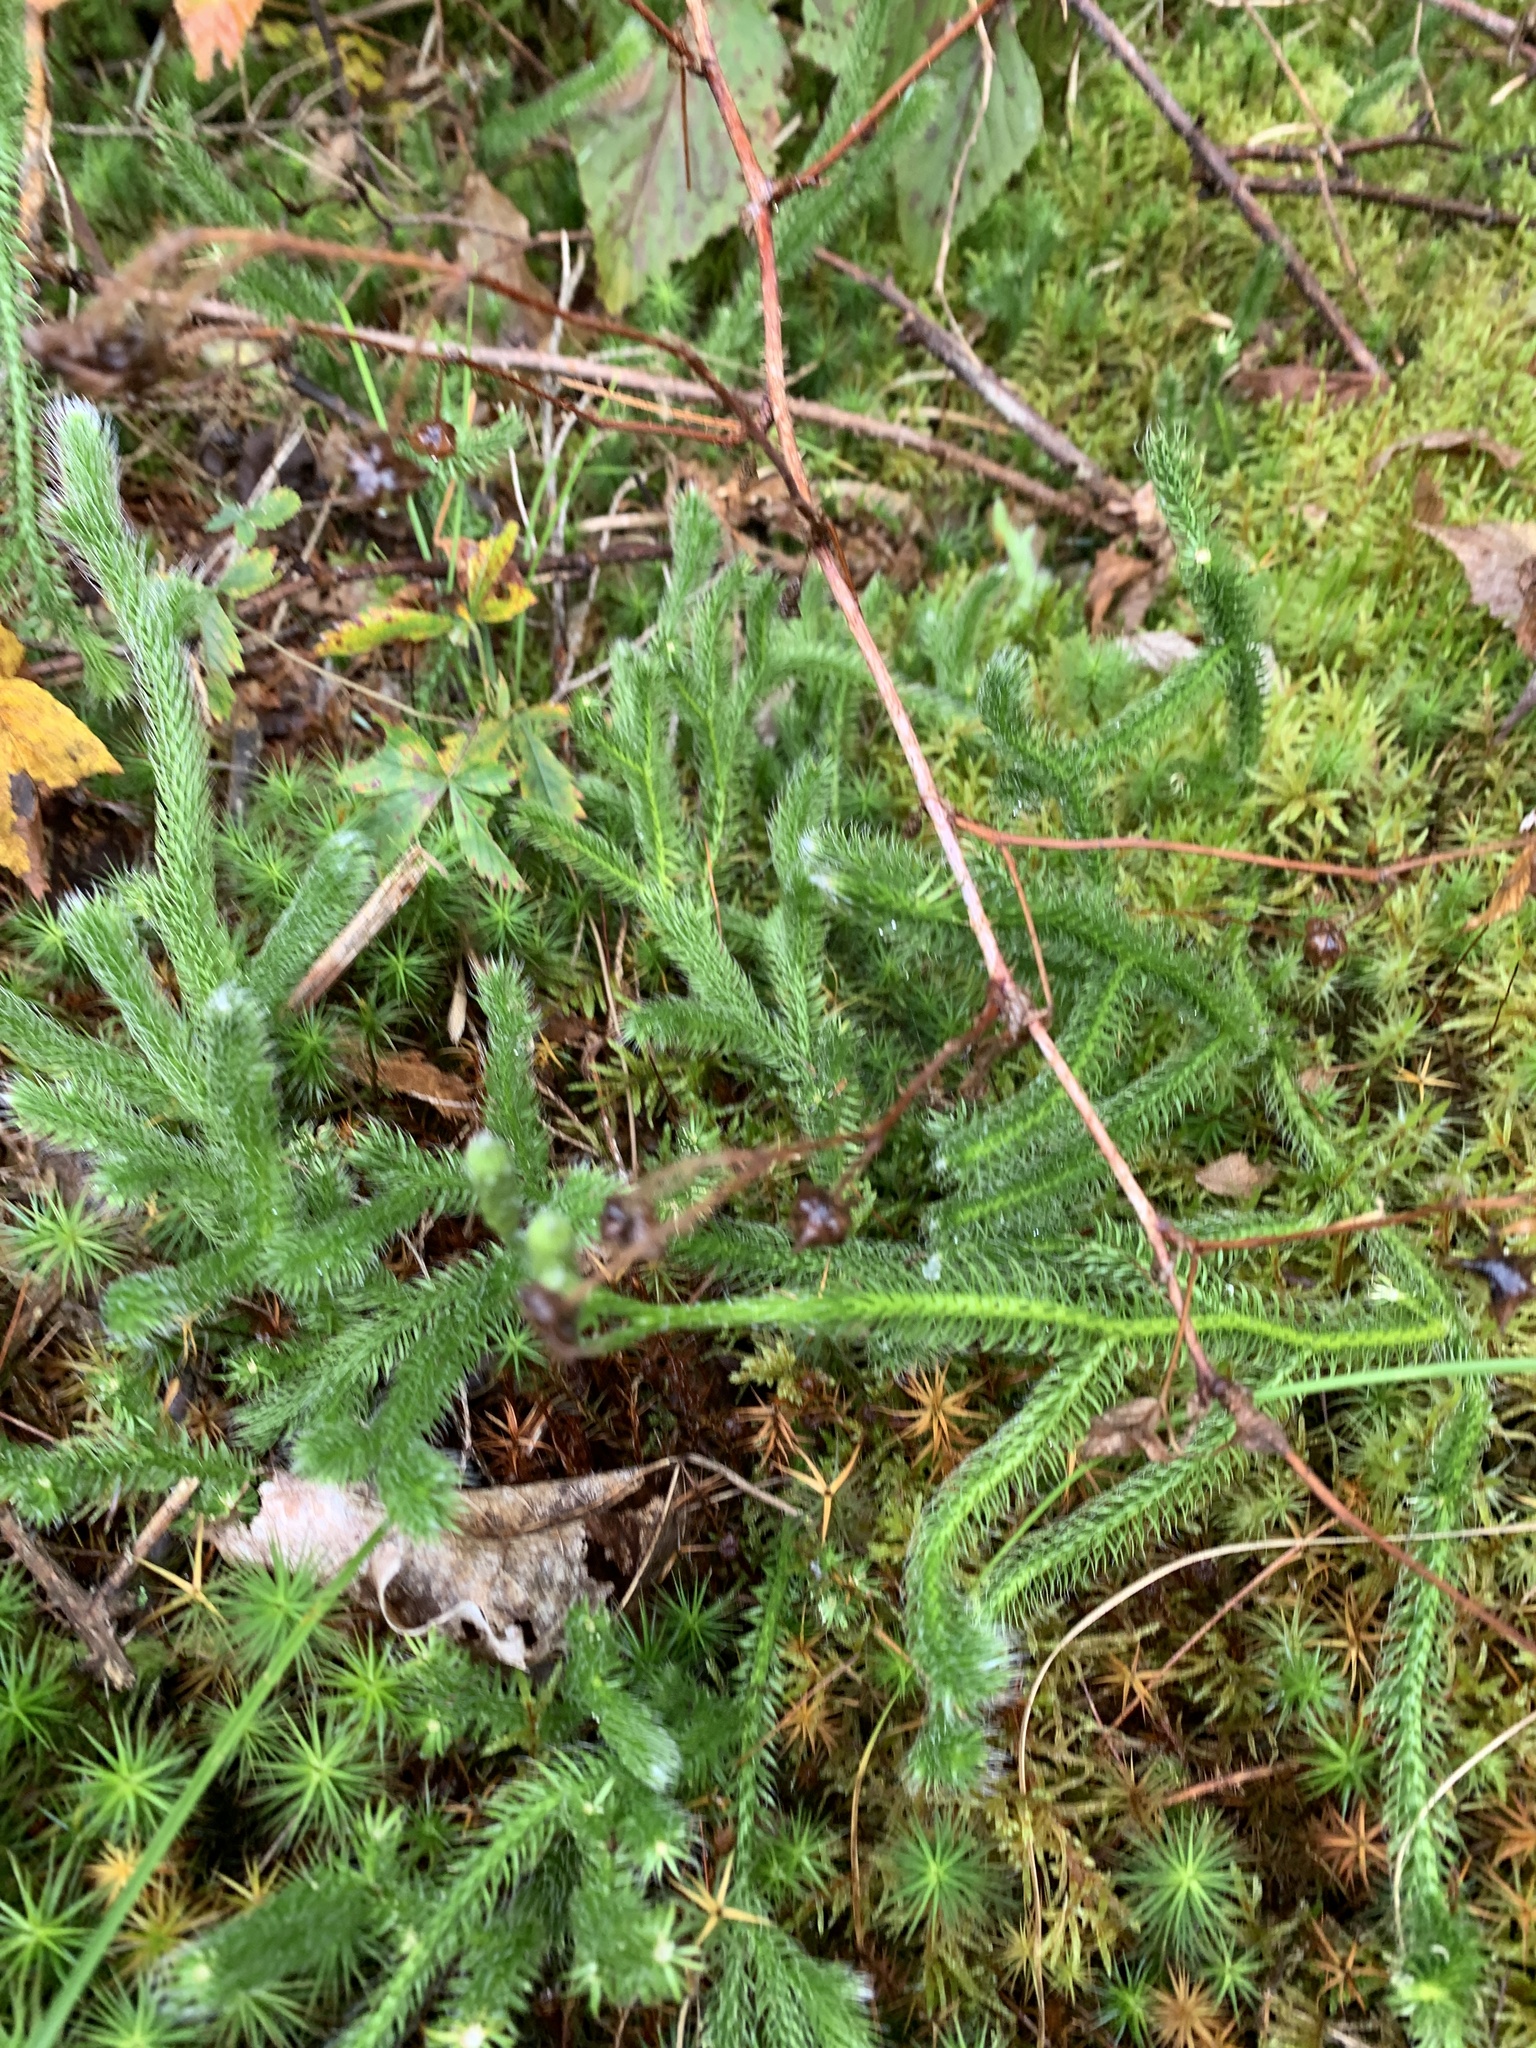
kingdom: Plantae
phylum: Tracheophyta
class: Lycopodiopsida
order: Lycopodiales
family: Lycopodiaceae
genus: Lycopodium
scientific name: Lycopodium clavatum
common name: Stag's-horn clubmoss
